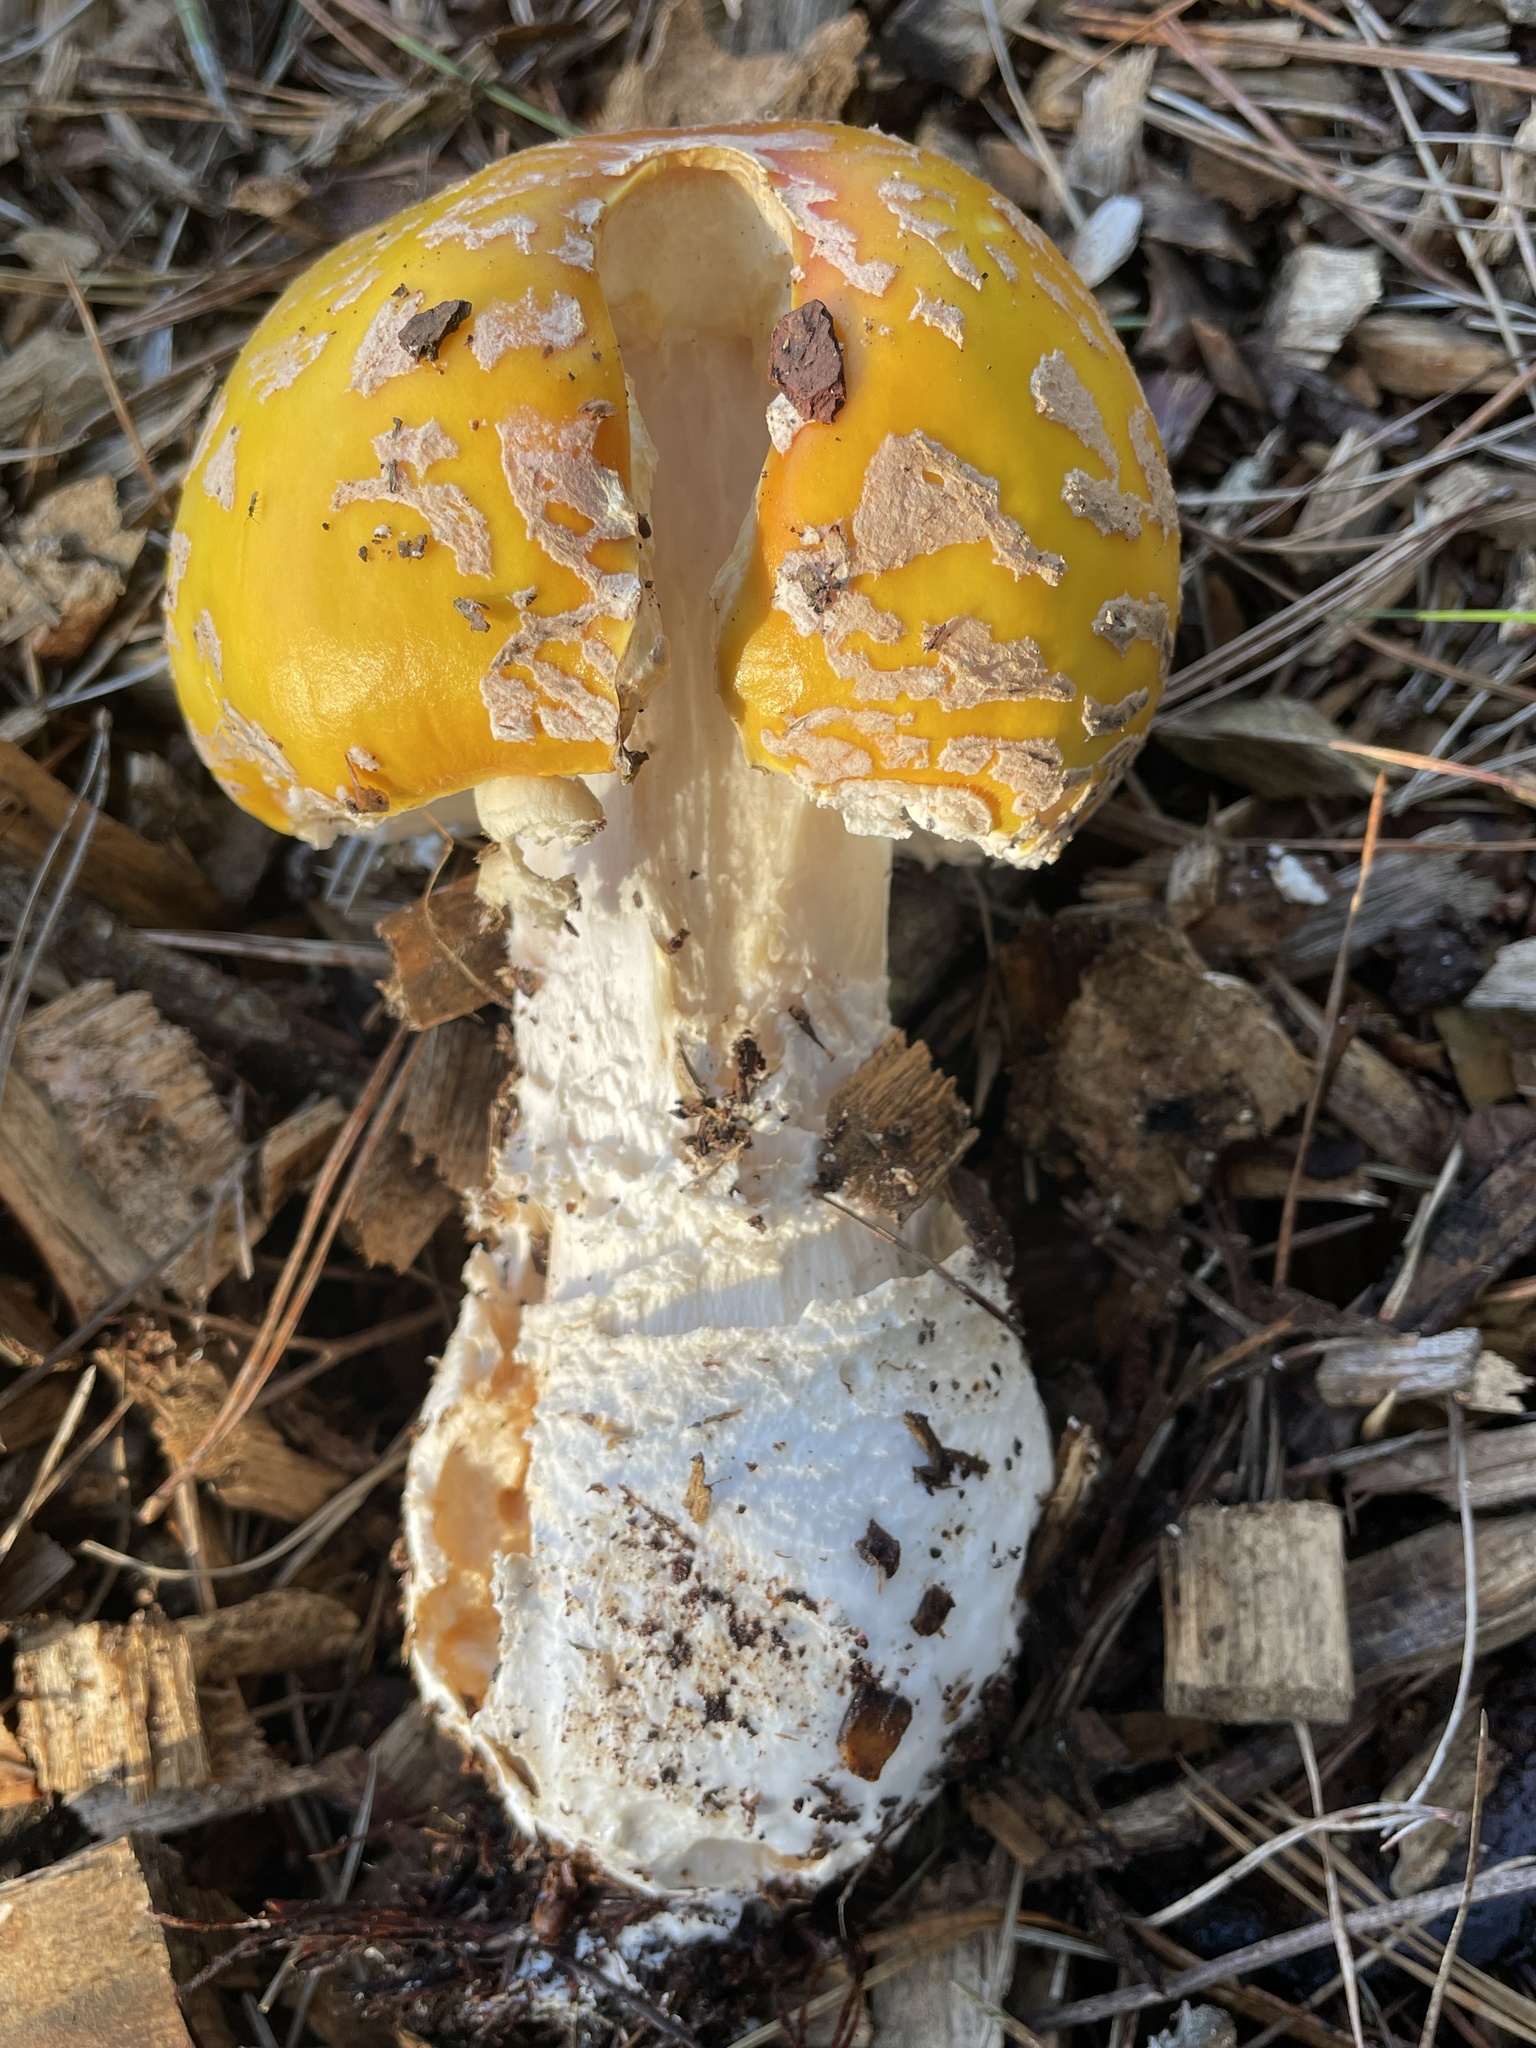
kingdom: Fungi
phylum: Basidiomycota
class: Agaricomycetes
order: Agaricales
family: Amanitaceae
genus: Amanita
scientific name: Amanita muscaria
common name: Fly agaric
